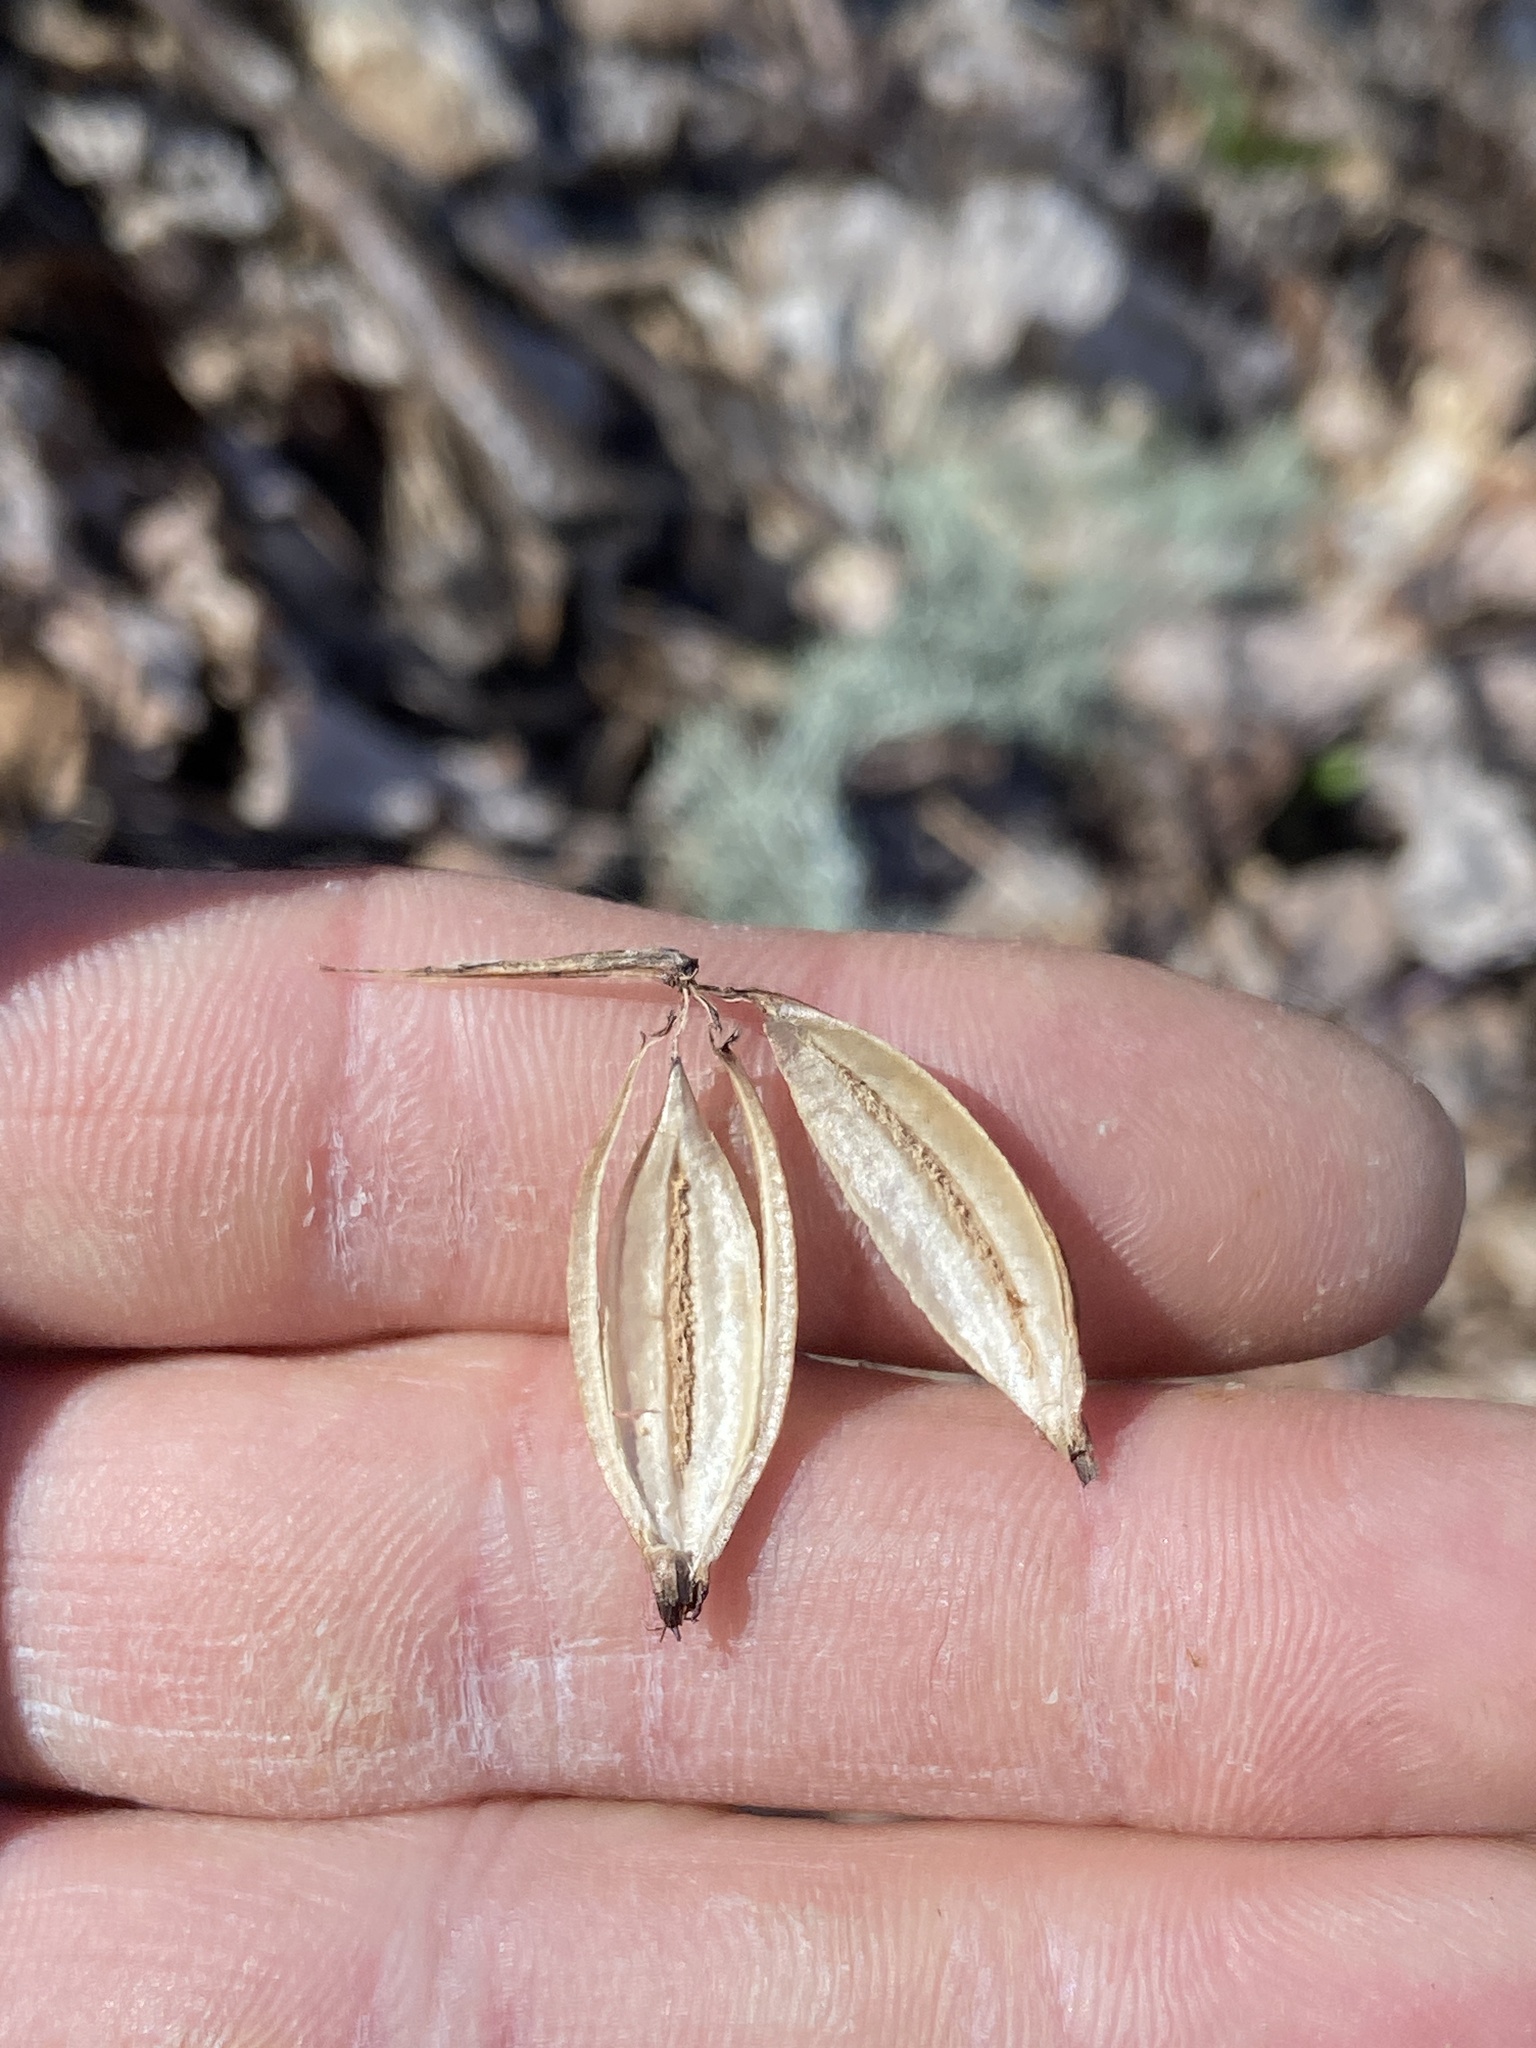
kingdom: Plantae
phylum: Tracheophyta
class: Liliopsida
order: Asparagales
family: Orchidaceae
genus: Aplectrum
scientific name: Aplectrum hyemale
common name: Adam-and-eve
